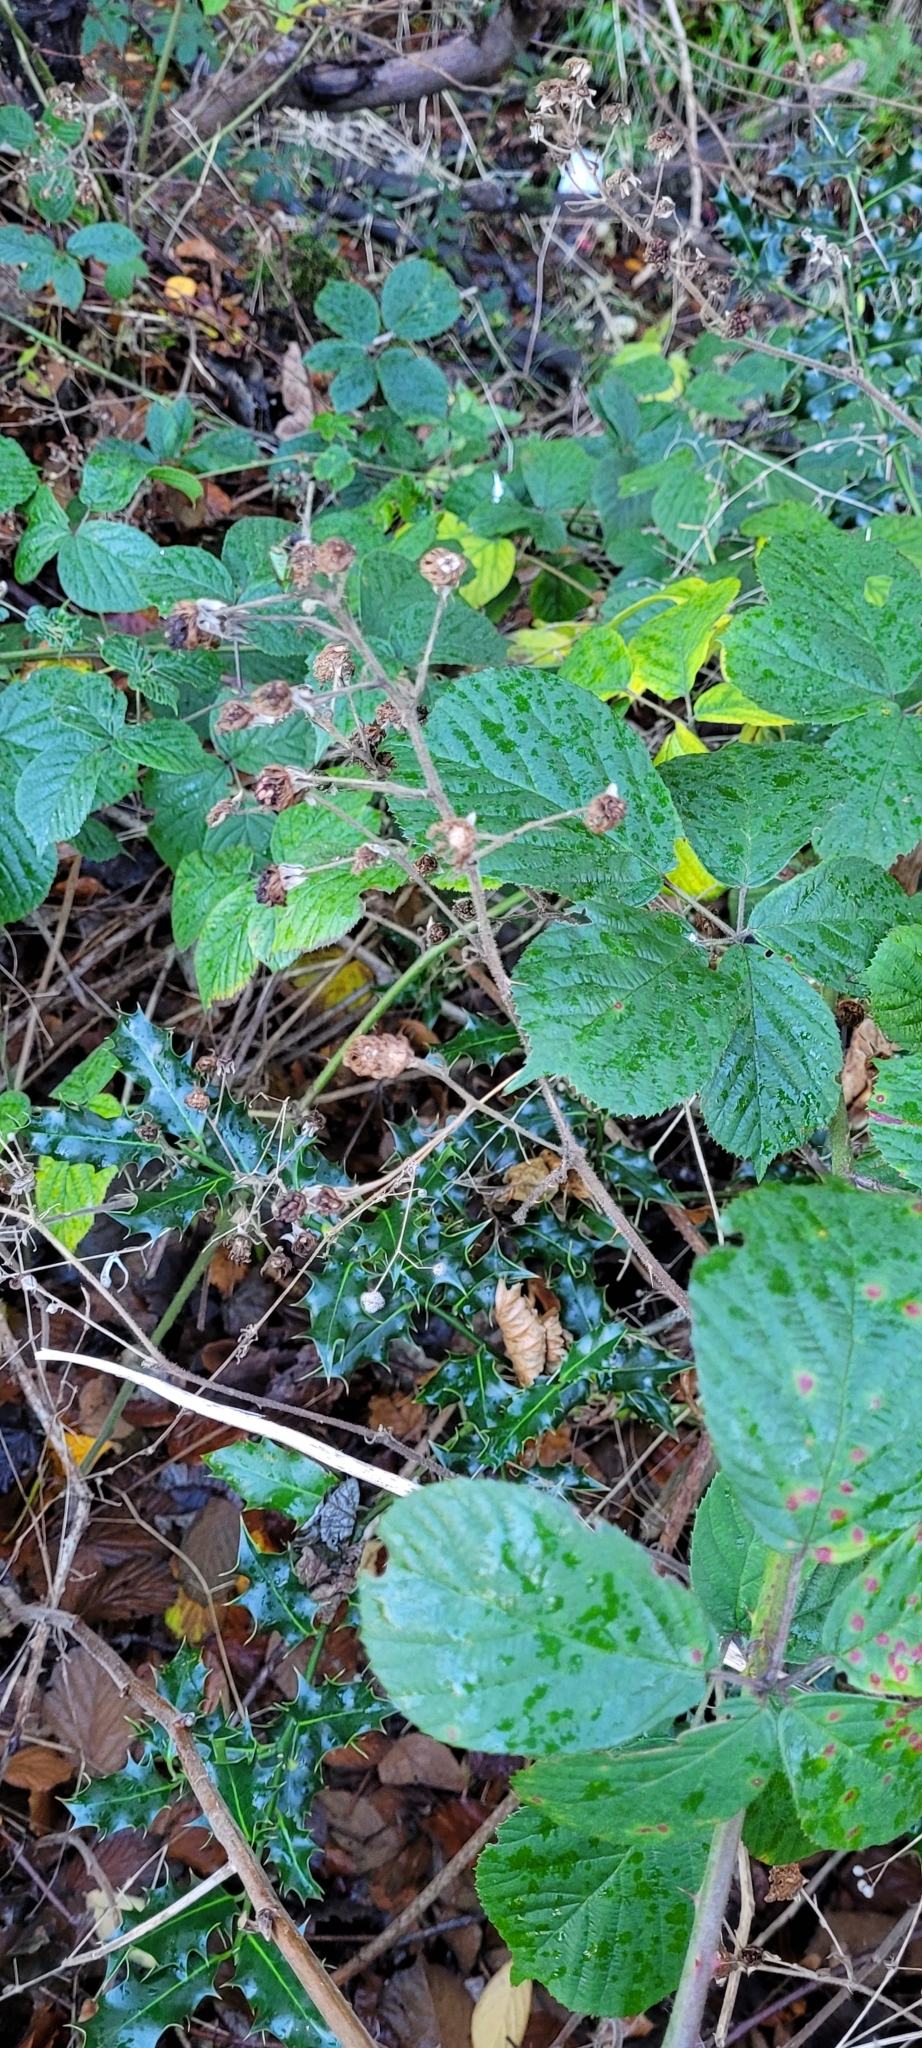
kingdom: Plantae
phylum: Tracheophyta
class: Magnoliopsida
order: Rosales
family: Rosaceae
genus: Rubus
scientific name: Rubus fruticosus
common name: Blackberry, bramble
